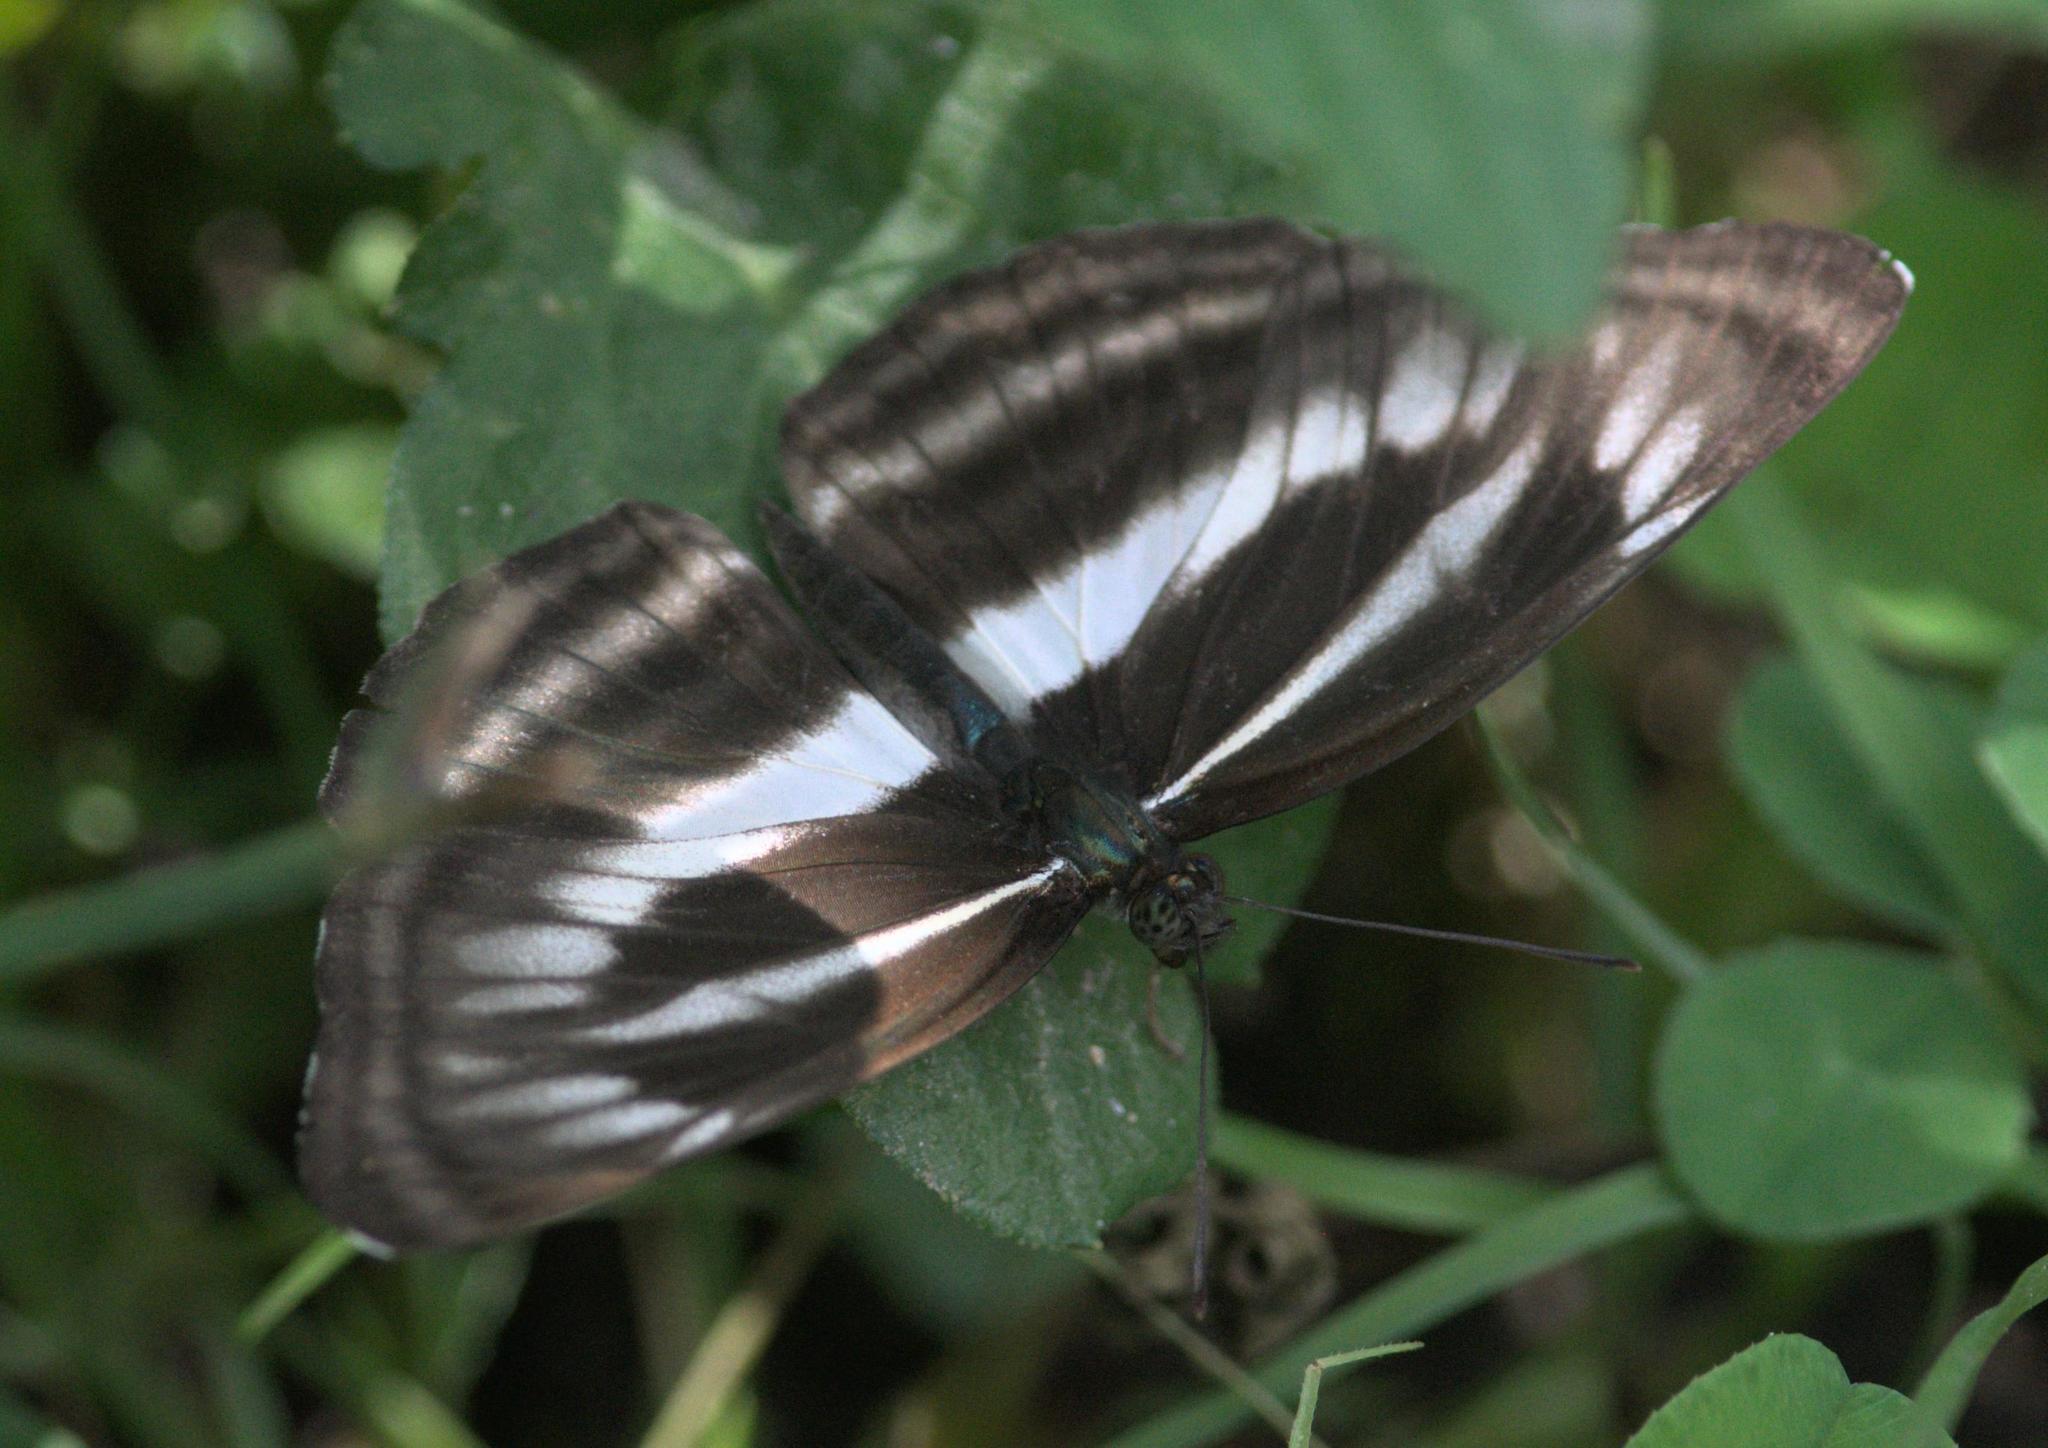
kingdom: Animalia
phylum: Arthropoda
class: Insecta
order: Lepidoptera
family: Nymphalidae
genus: Neptis
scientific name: Neptis sankara
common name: Broad-banded sailer
